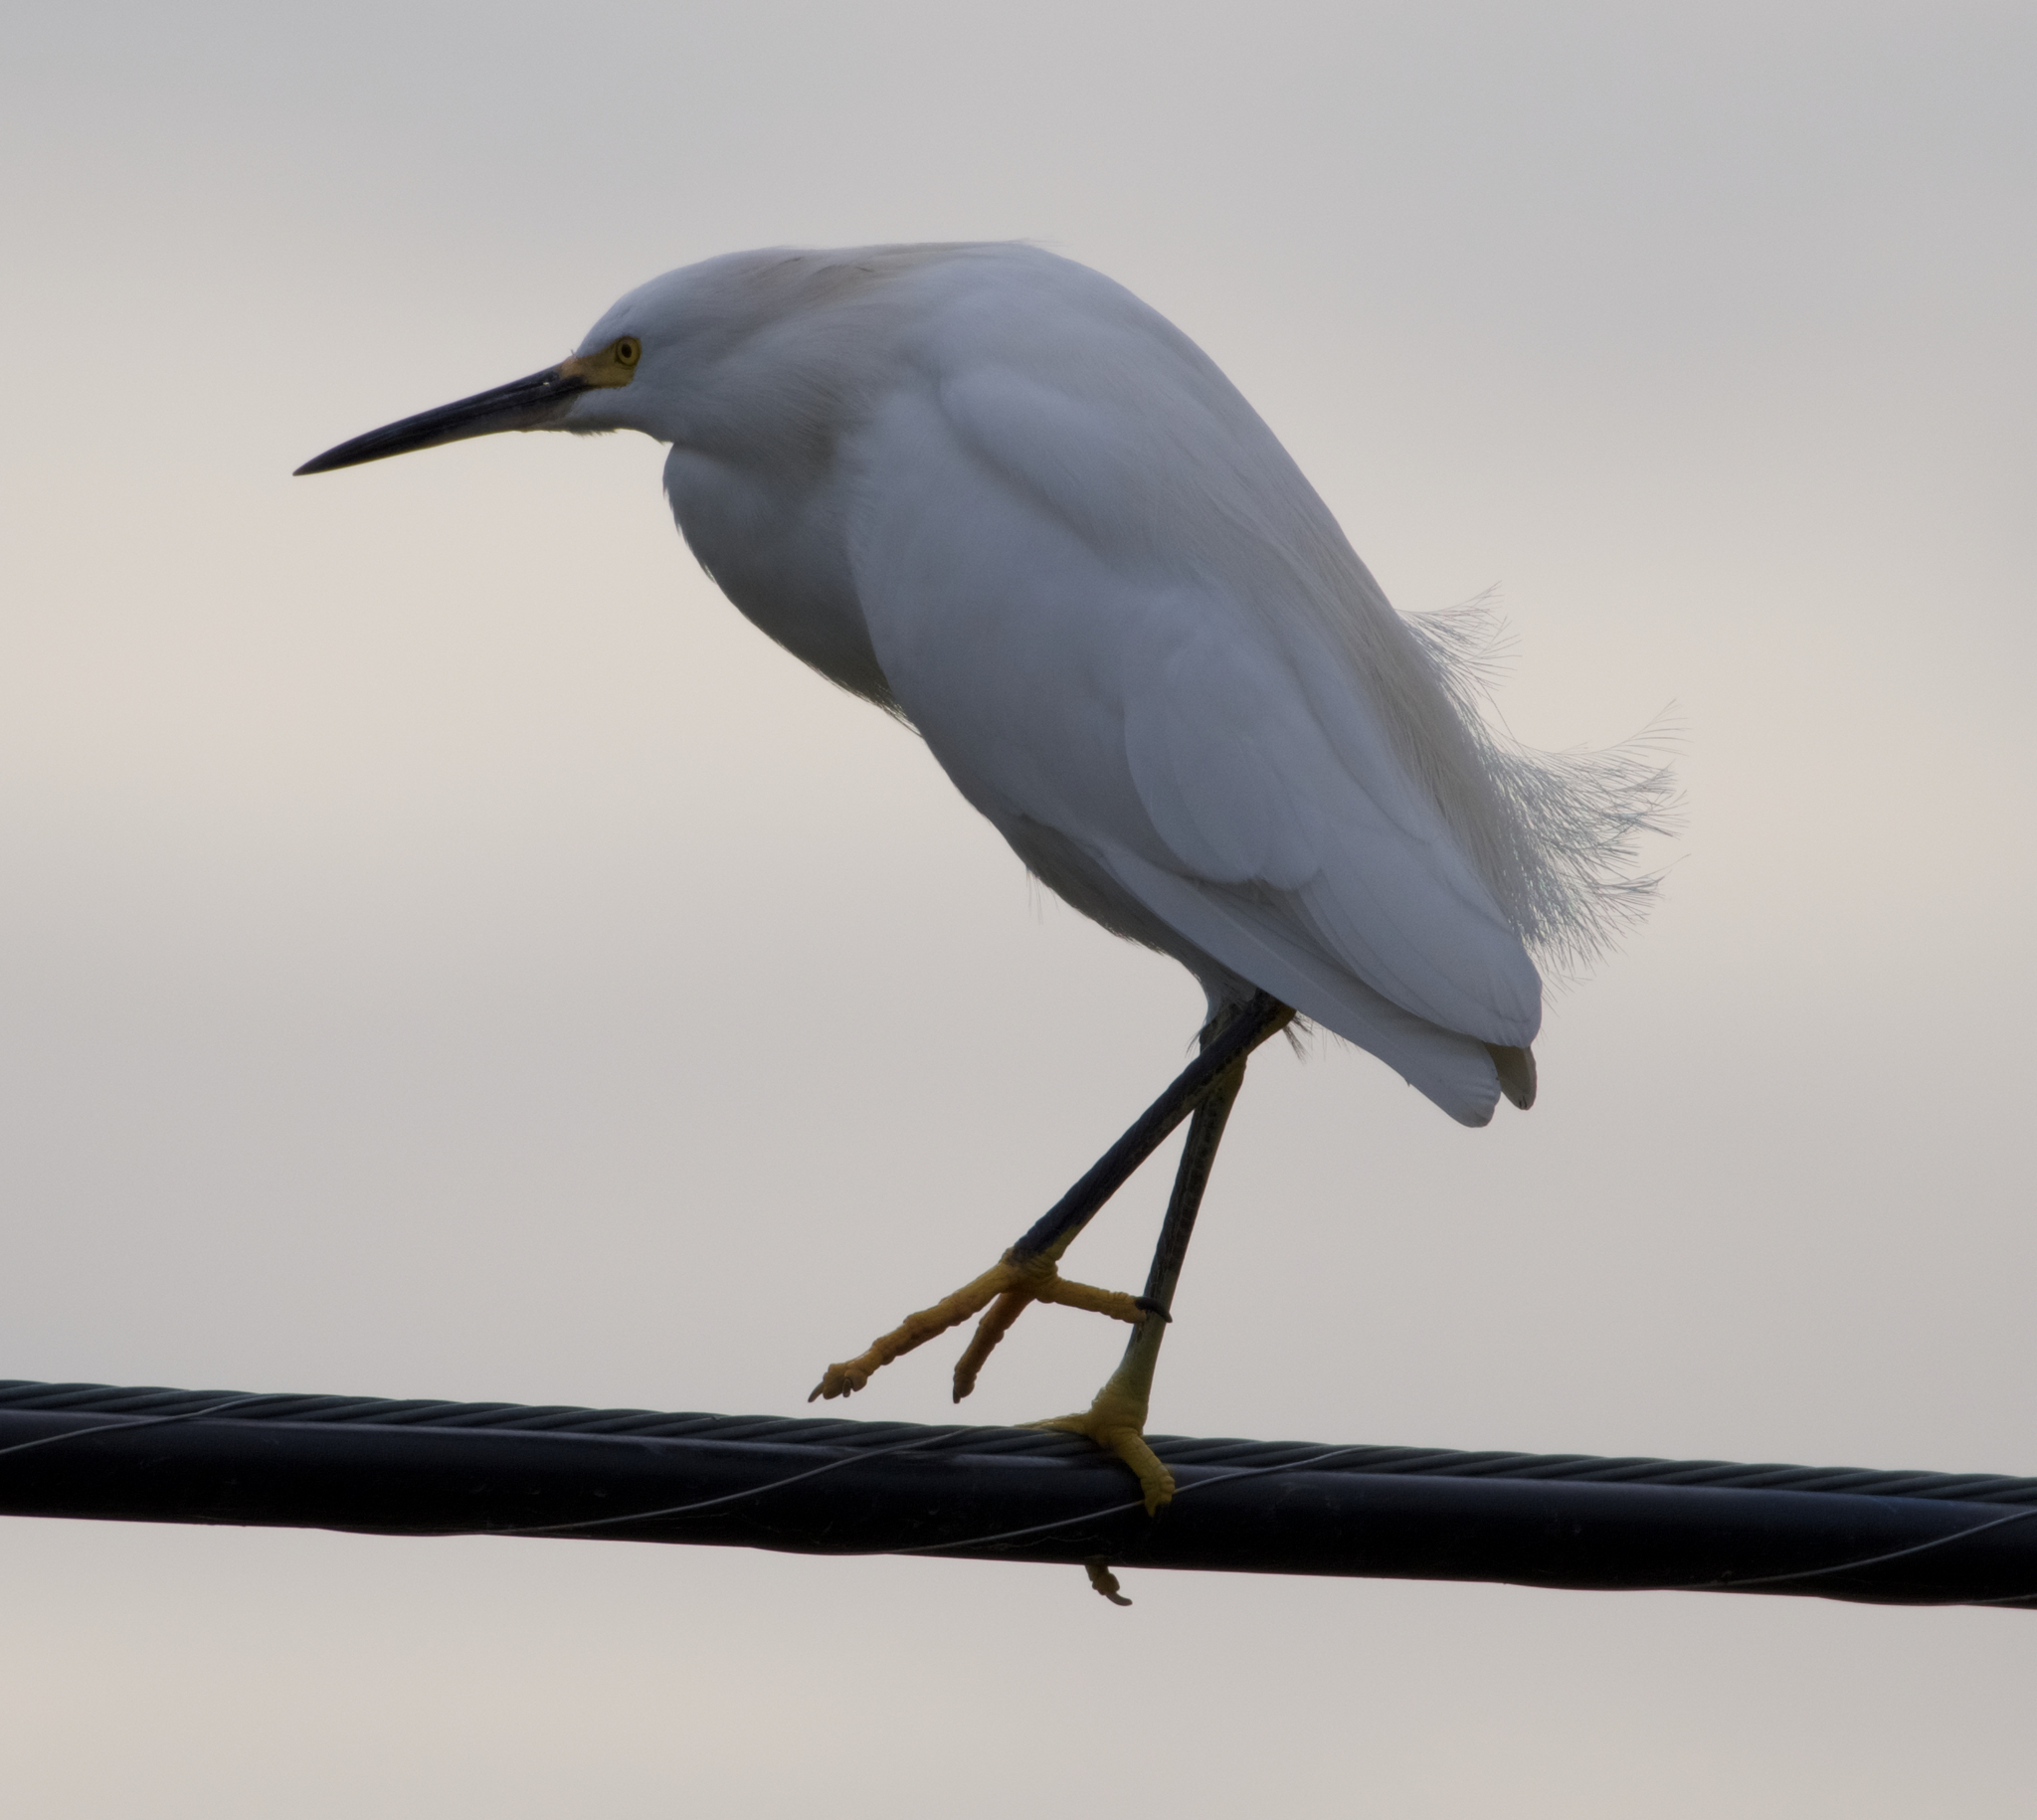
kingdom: Animalia
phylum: Chordata
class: Aves
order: Pelecaniformes
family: Ardeidae
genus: Egretta
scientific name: Egretta thula
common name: Snowy egret
